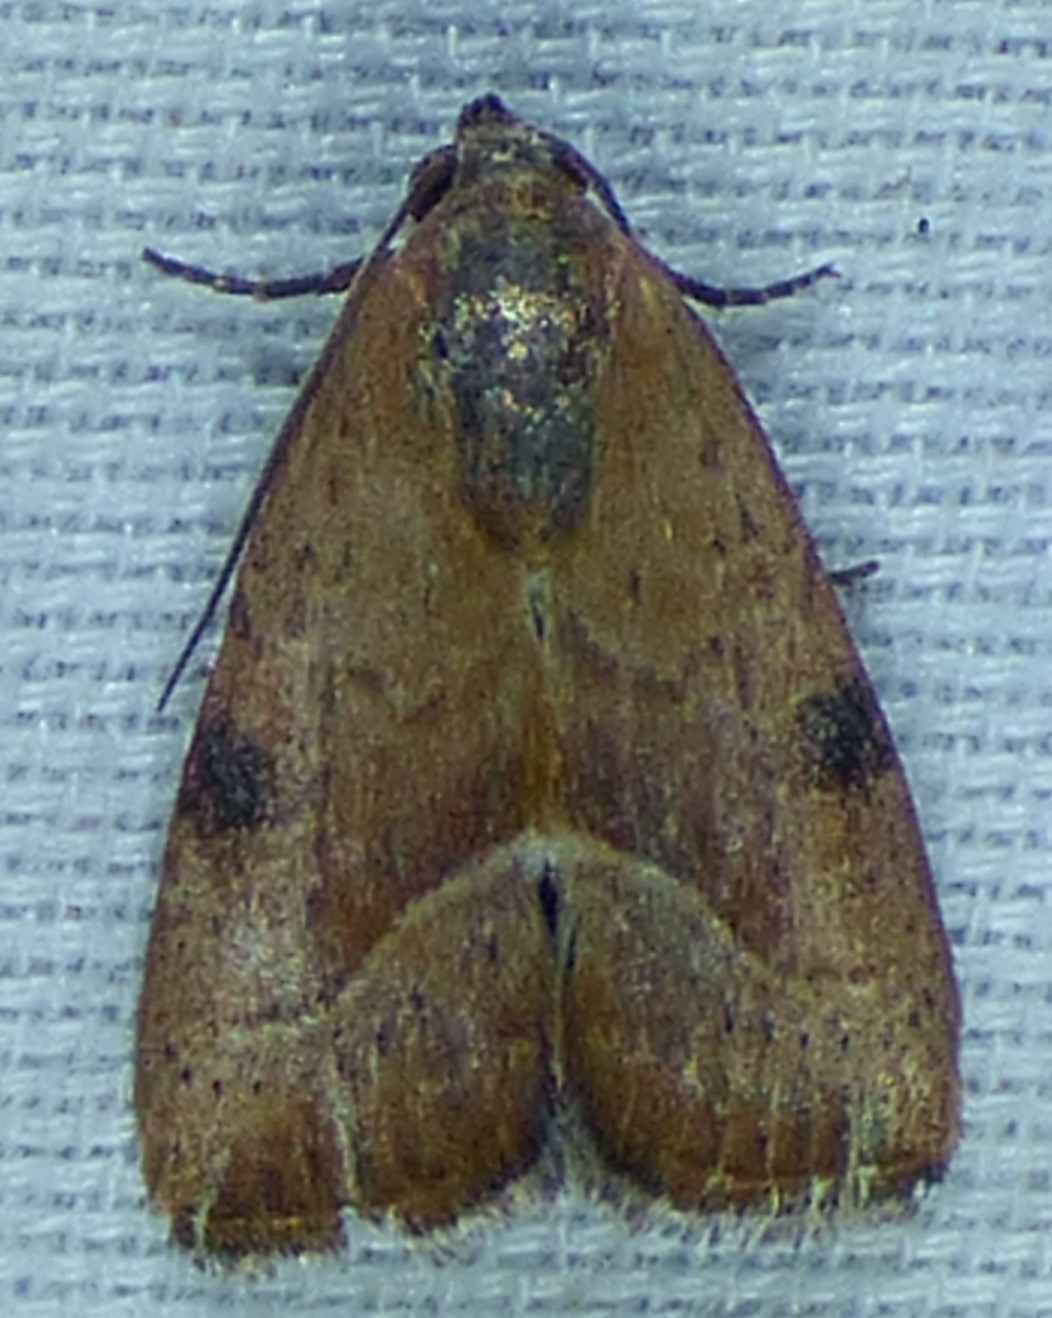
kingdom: Animalia
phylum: Arthropoda
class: Insecta
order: Lepidoptera
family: Noctuidae
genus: Galgula
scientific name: Galgula partita
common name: Wedgeling
